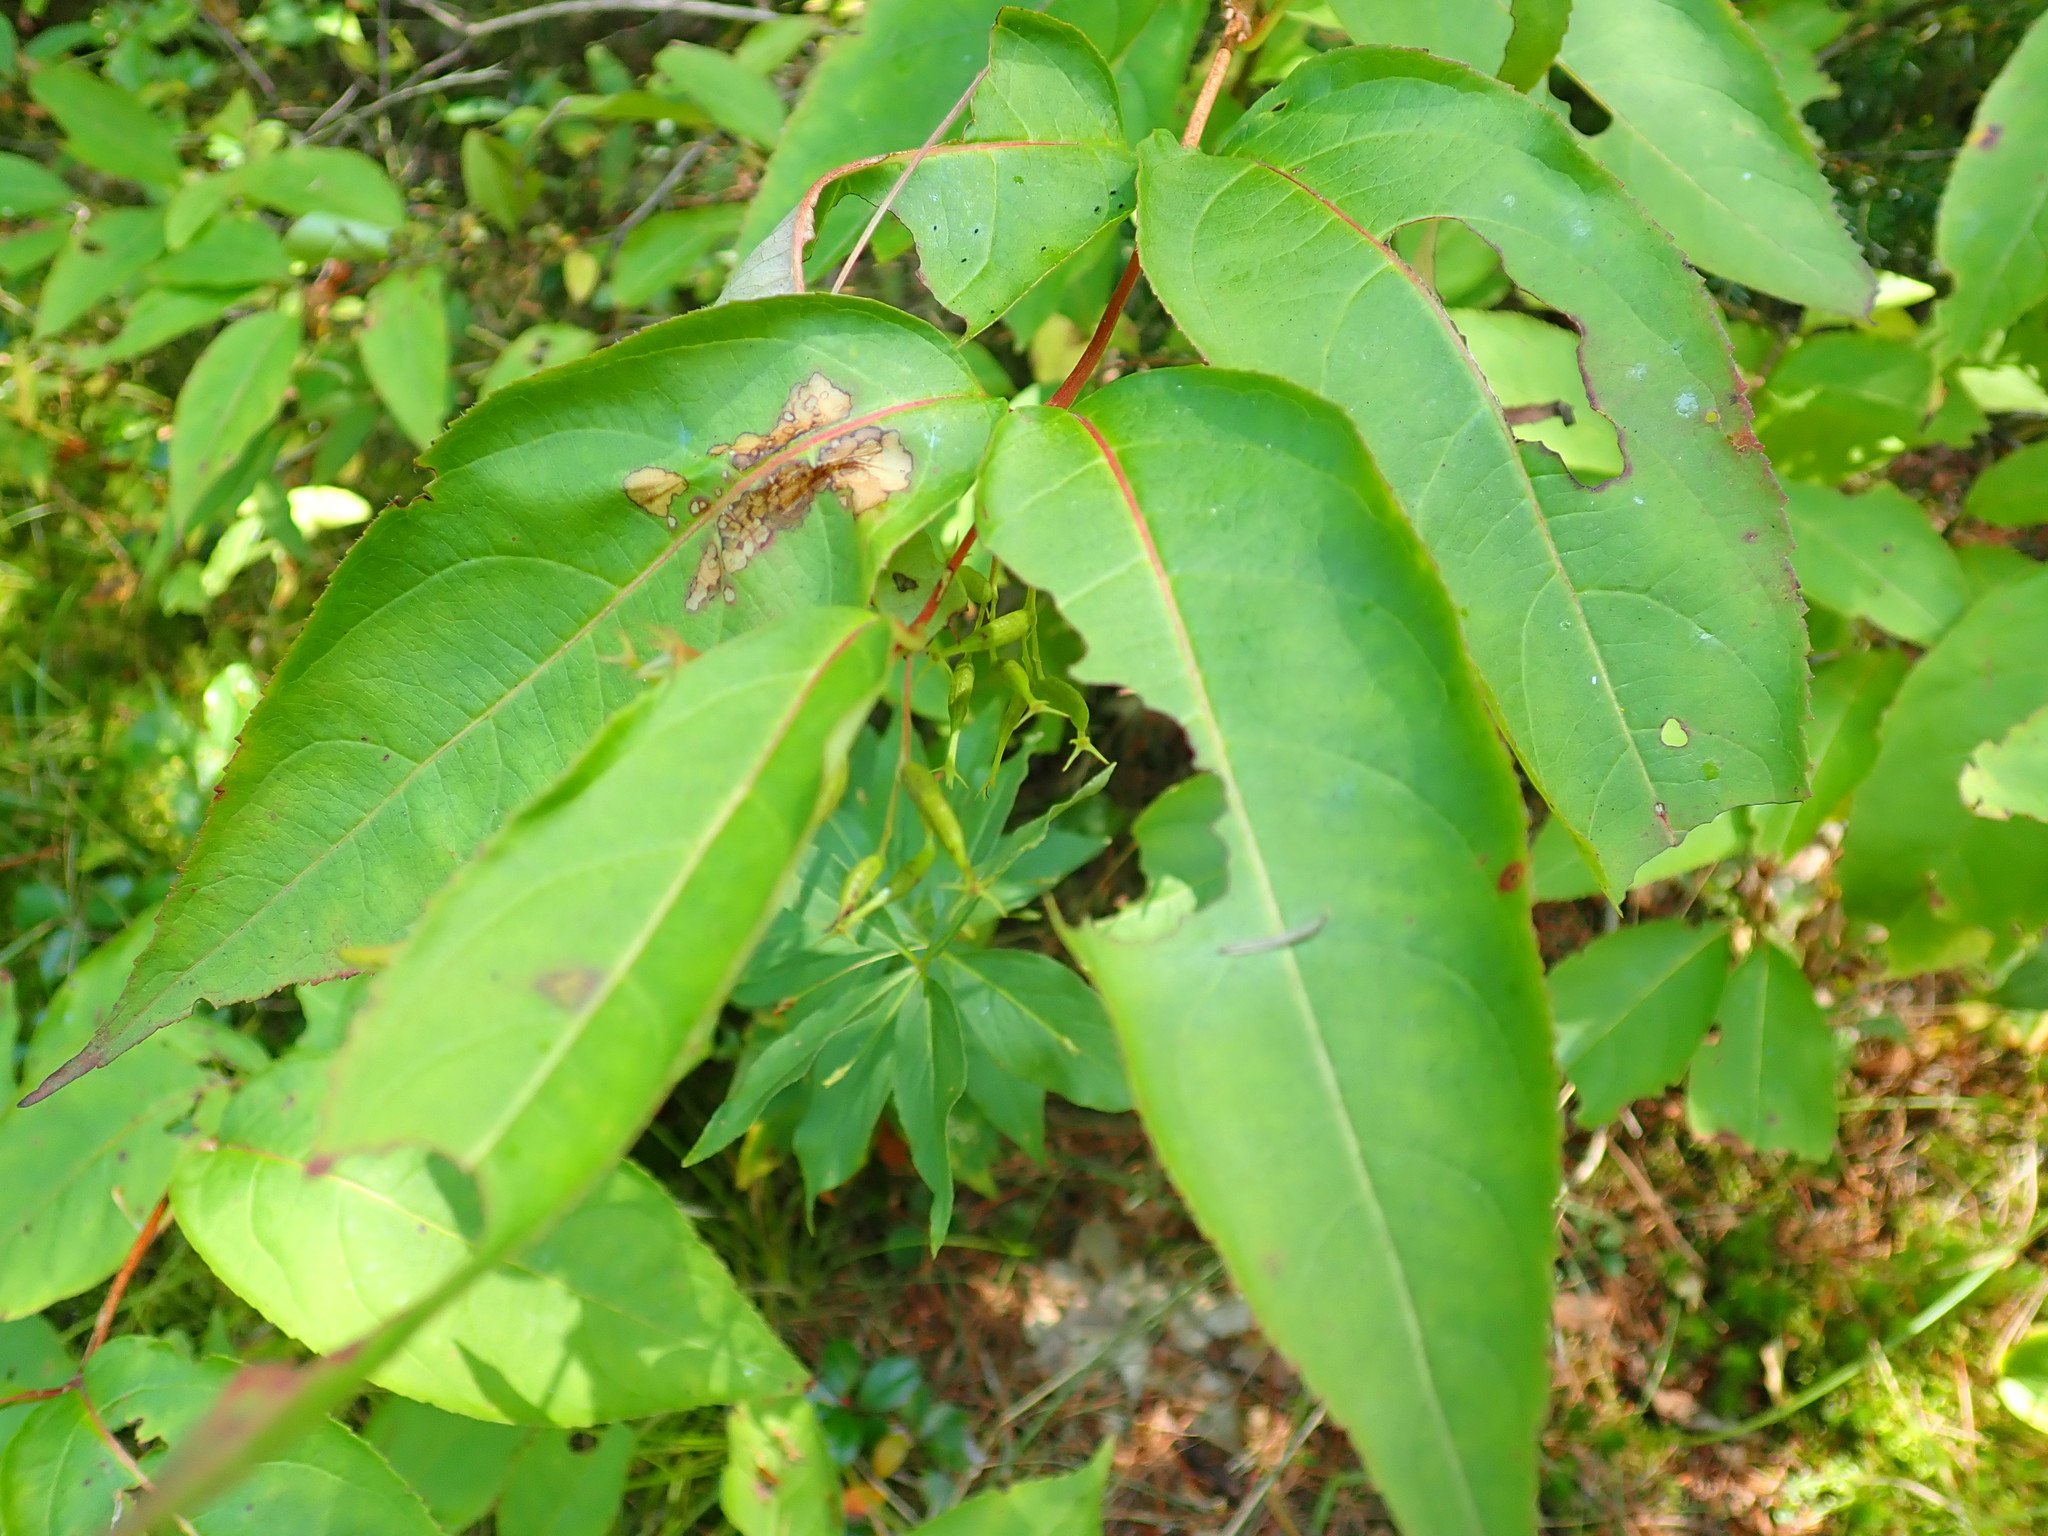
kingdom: Plantae
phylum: Tracheophyta
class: Magnoliopsida
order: Dipsacales
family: Caprifoliaceae
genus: Diervilla
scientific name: Diervilla lonicera
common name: Bush-honeysuckle
